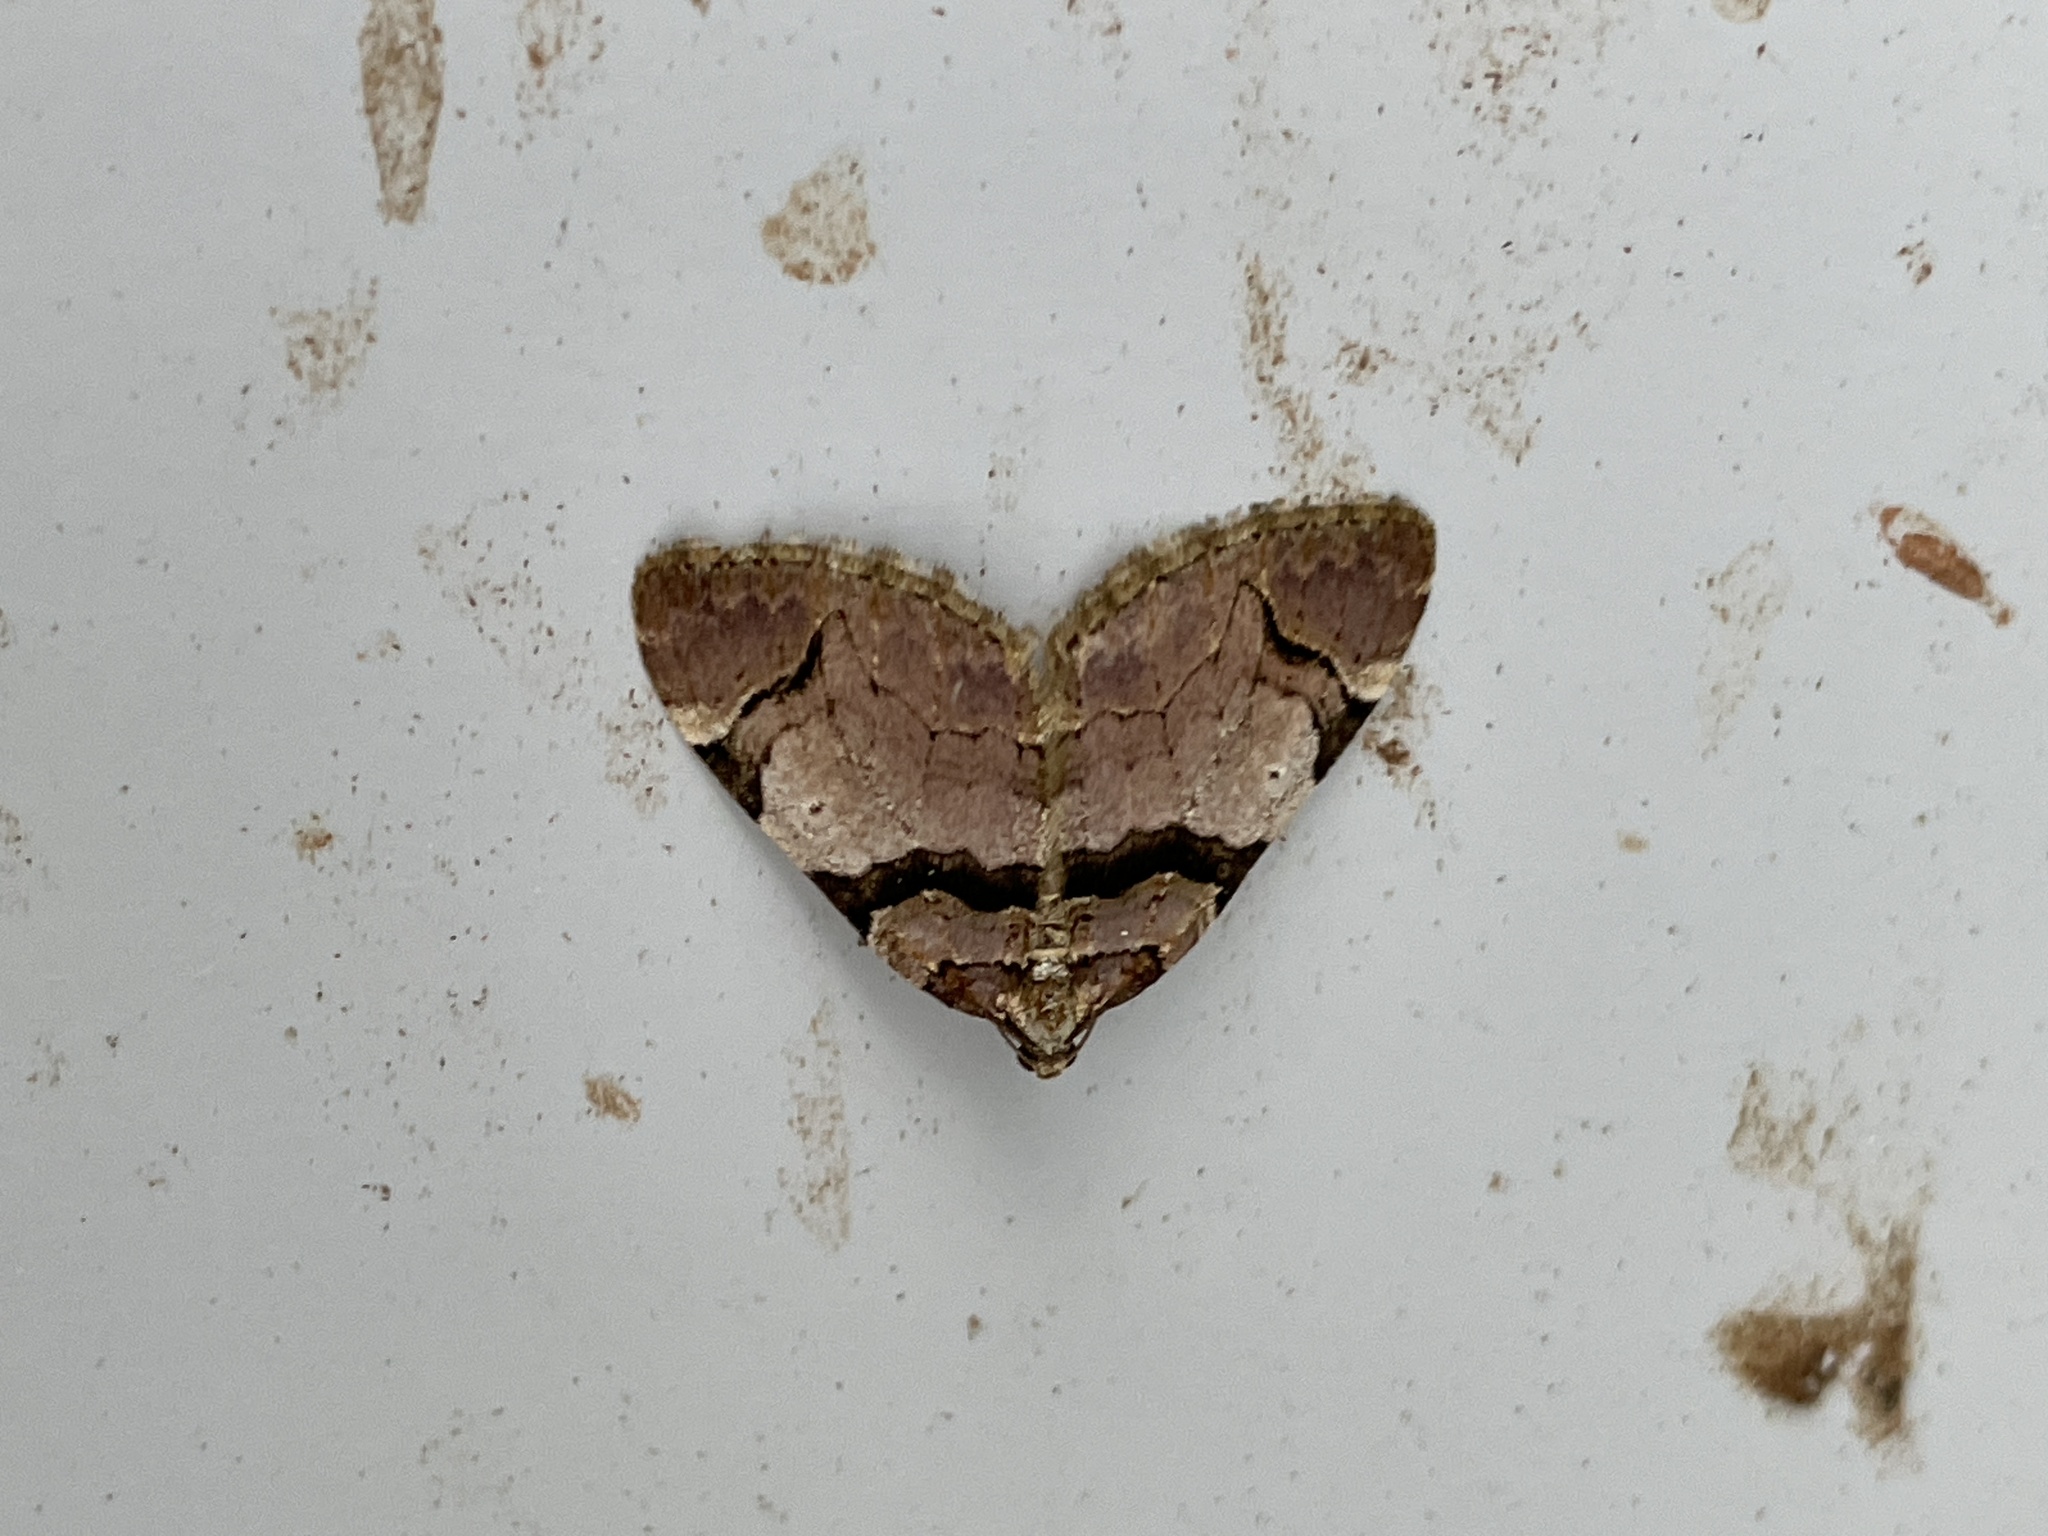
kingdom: Animalia
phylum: Arthropoda
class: Insecta
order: Lepidoptera
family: Geometridae
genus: Anticlea
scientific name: Anticlea derivata
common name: Streamer
